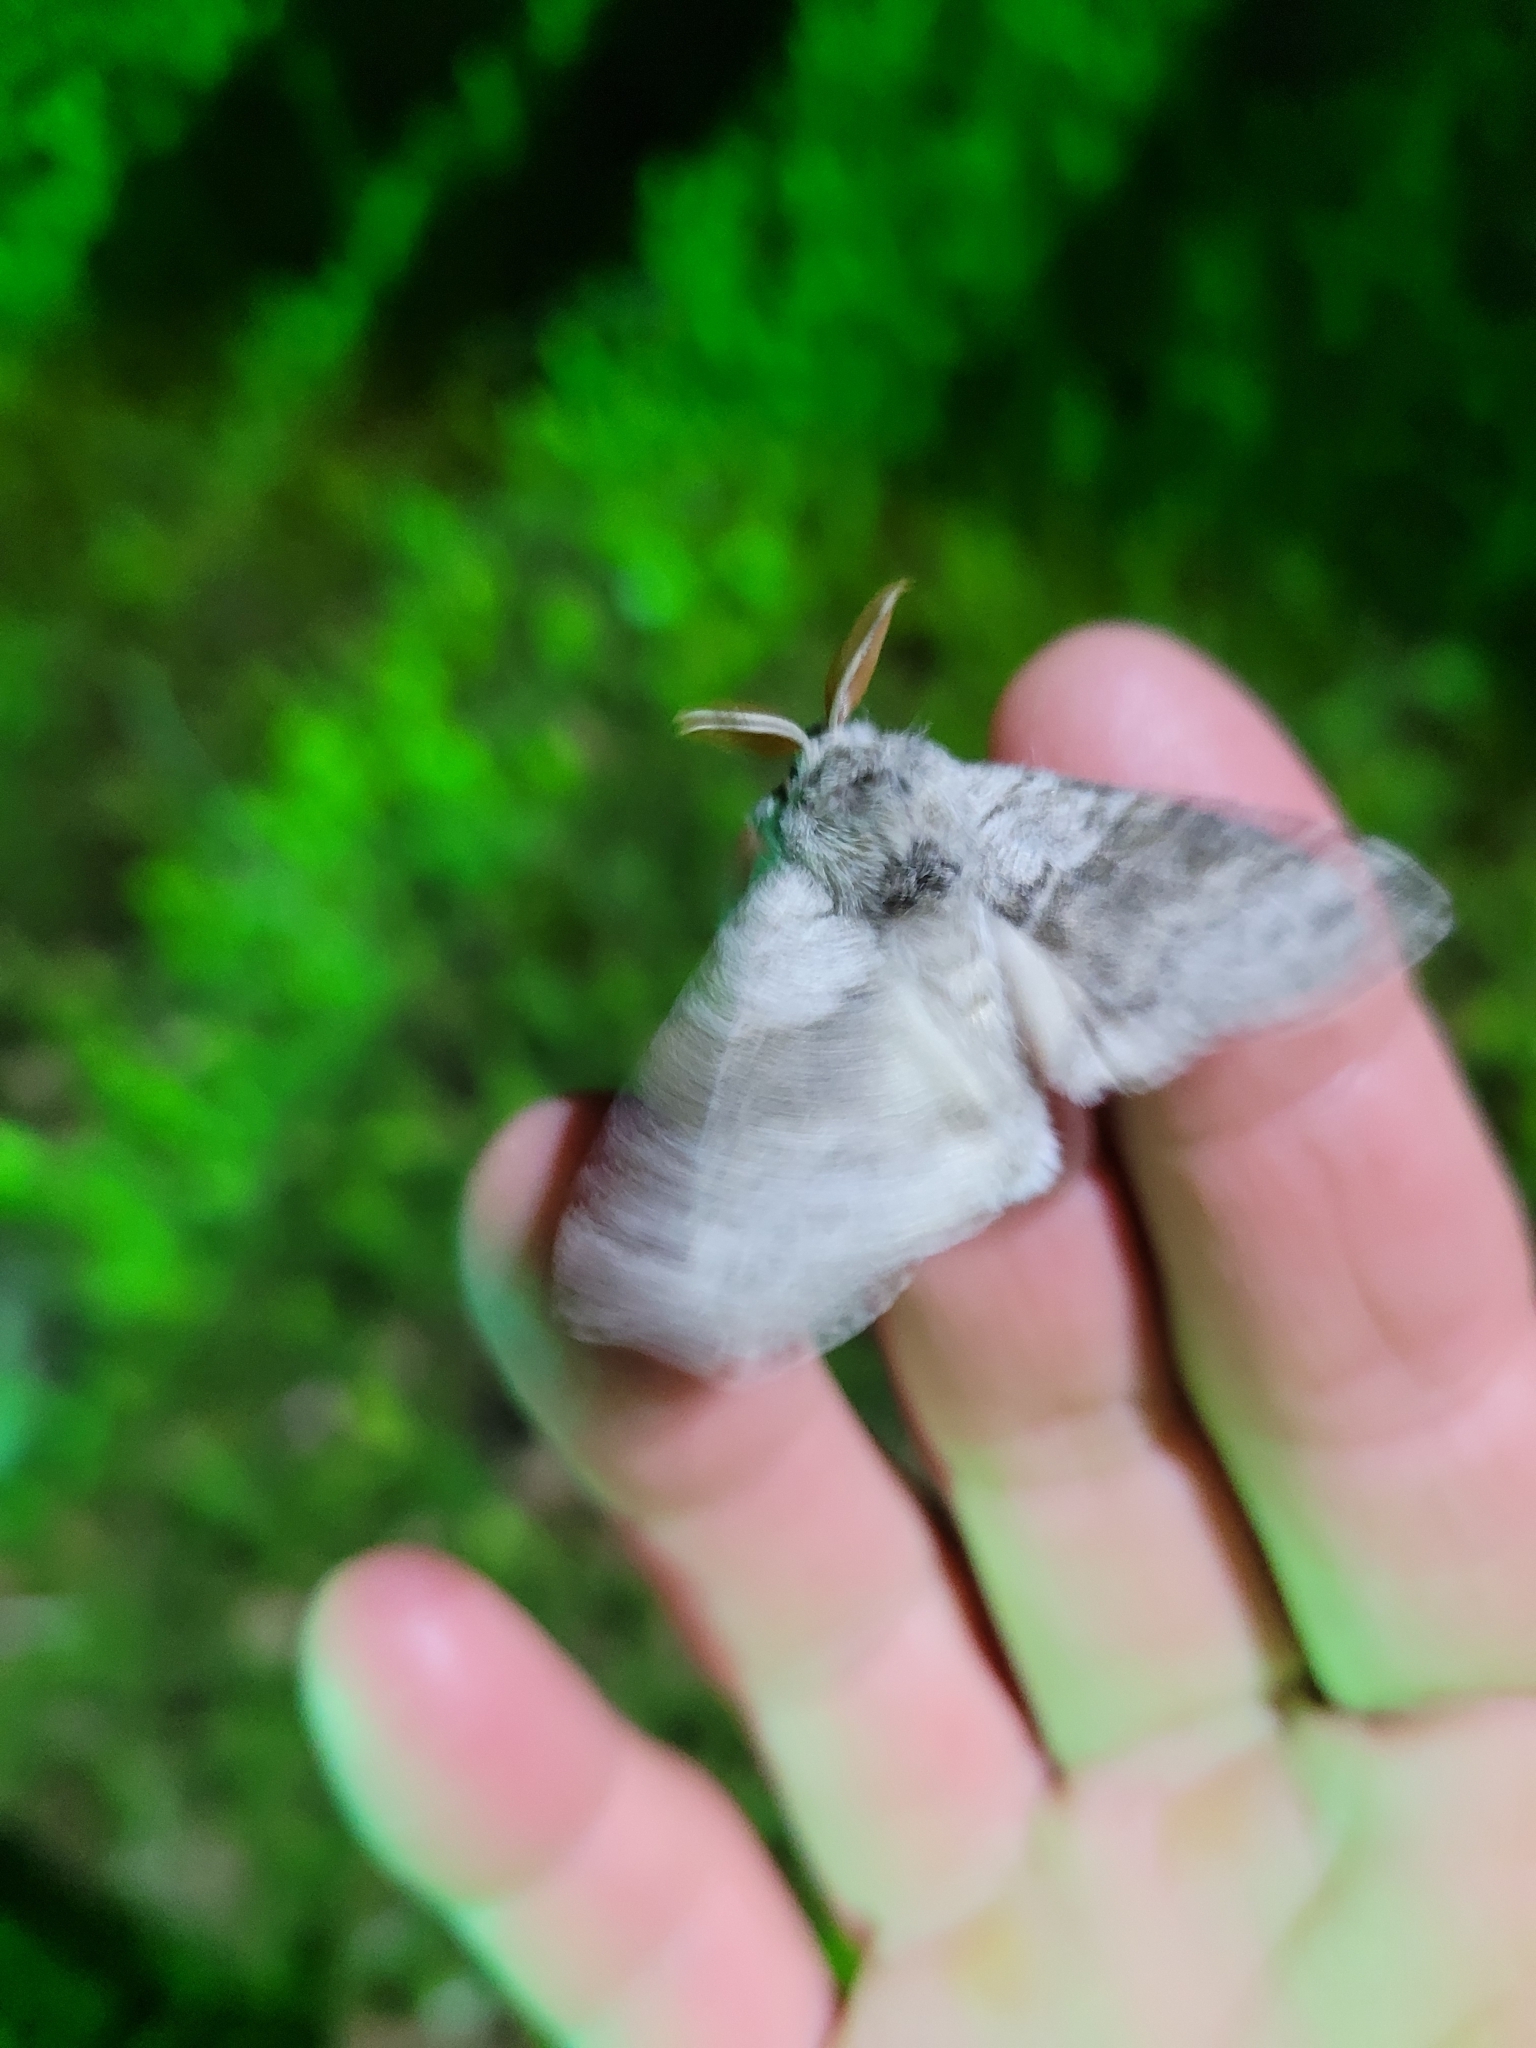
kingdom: Animalia
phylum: Arthropoda
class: Insecta
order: Lepidoptera
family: Erebidae
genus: Calliteara
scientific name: Calliteara pudibunda
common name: Pale tussock
